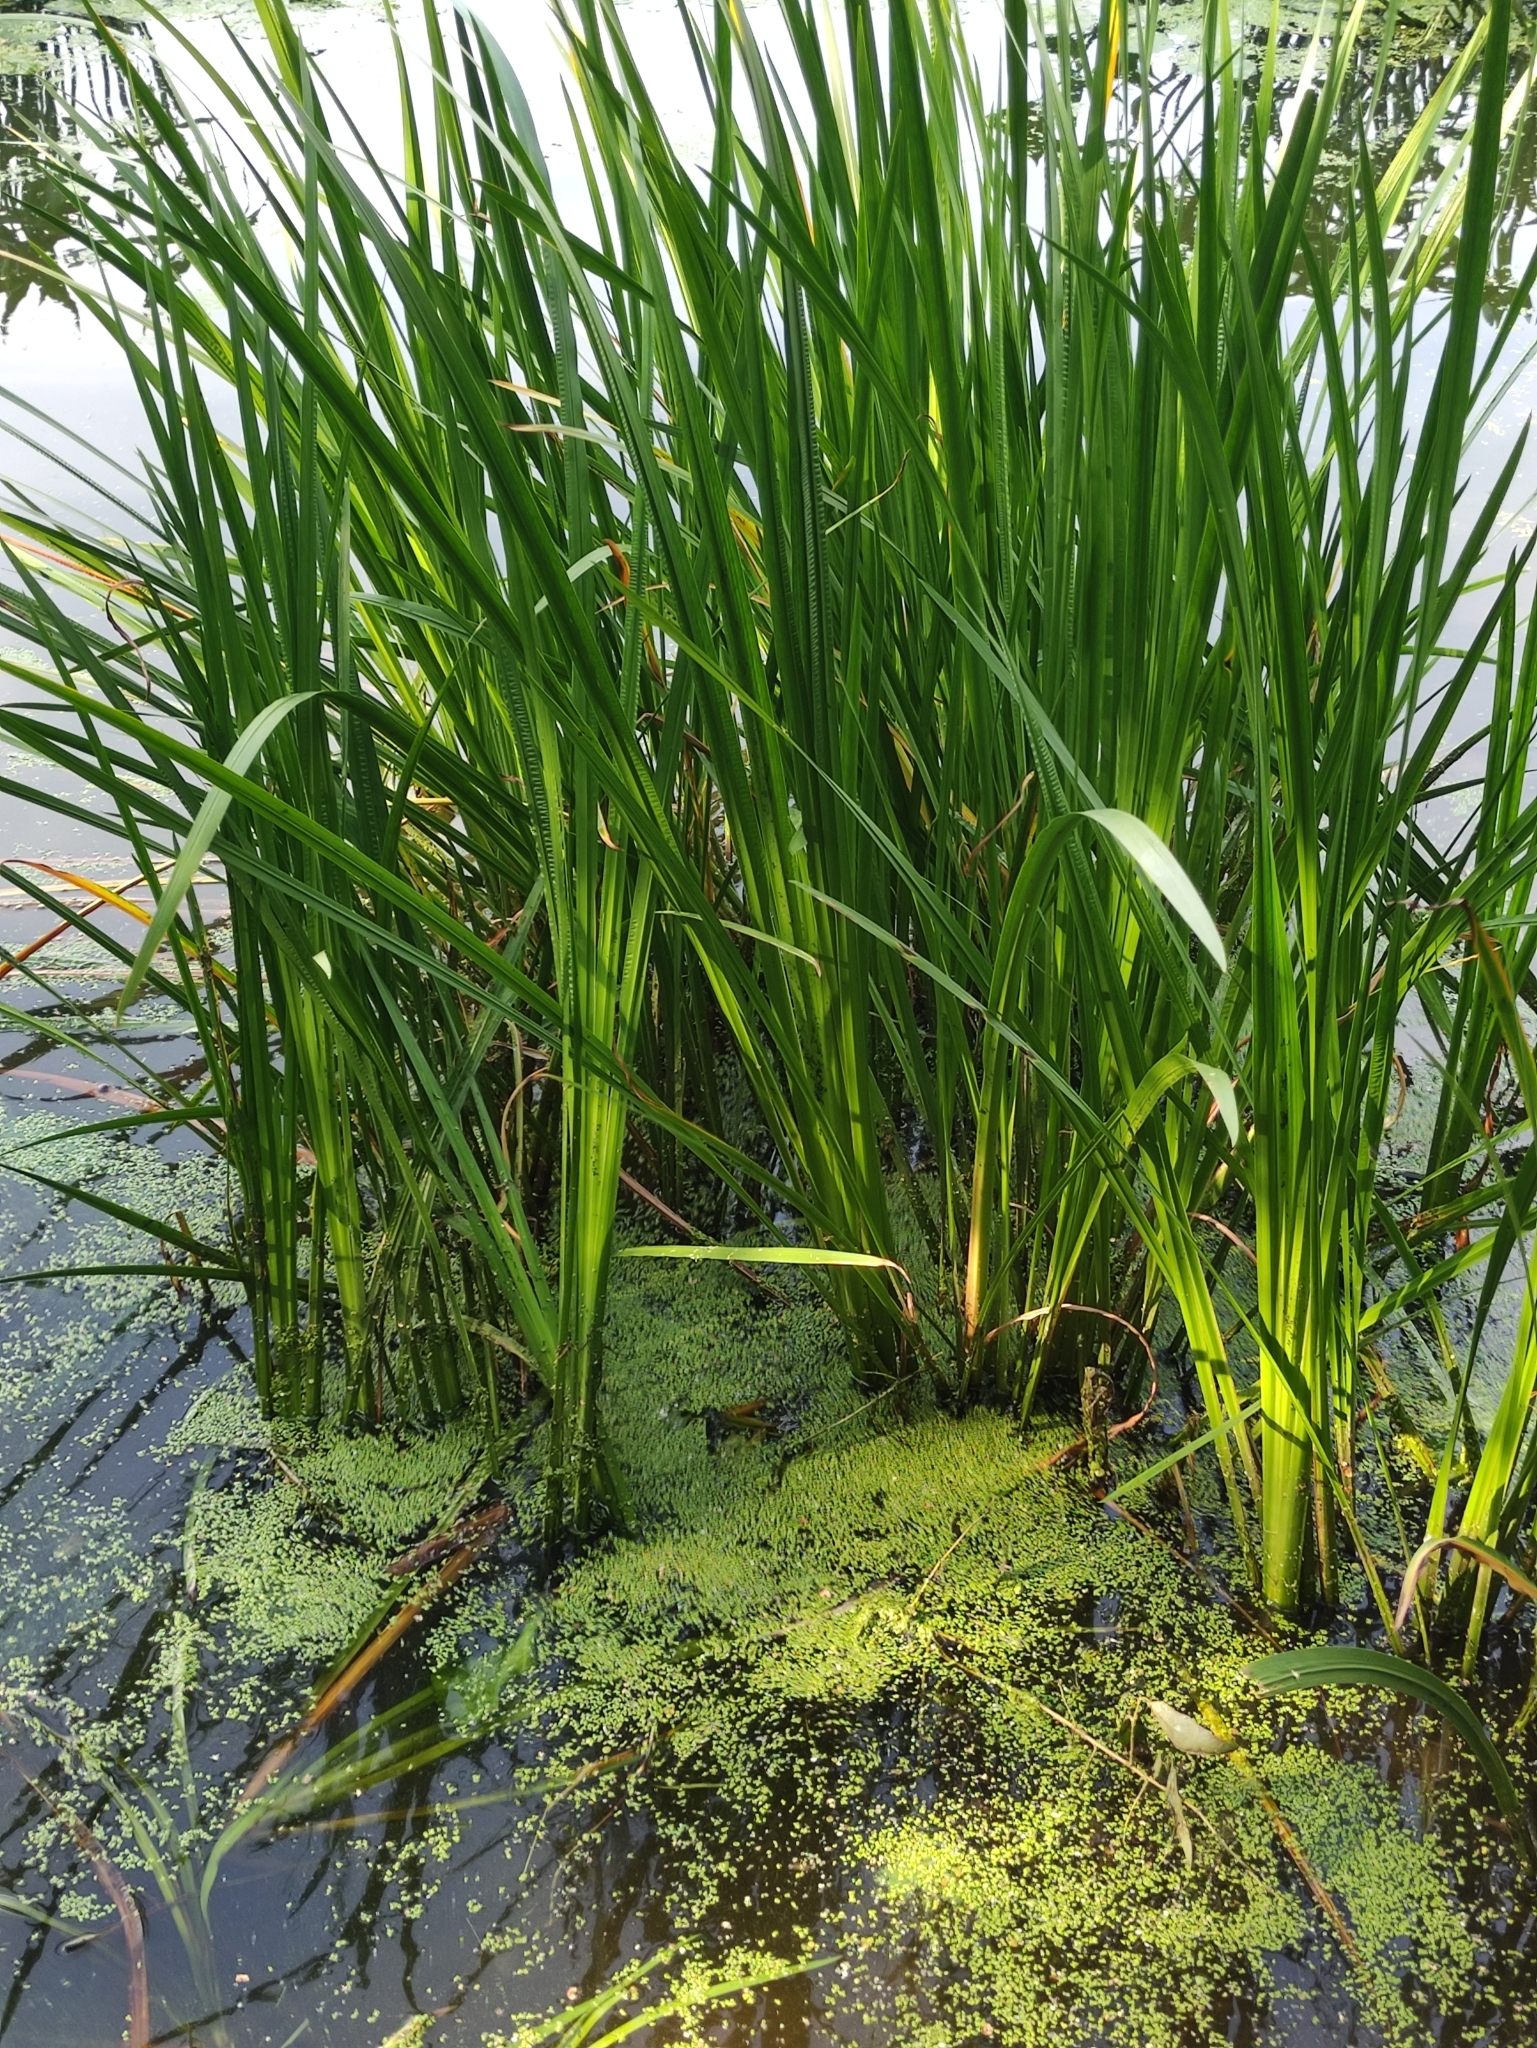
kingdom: Plantae
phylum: Tracheophyta
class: Liliopsida
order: Acorales
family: Acoraceae
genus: Acorus
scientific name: Acorus calamus
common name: Sweet-flag
